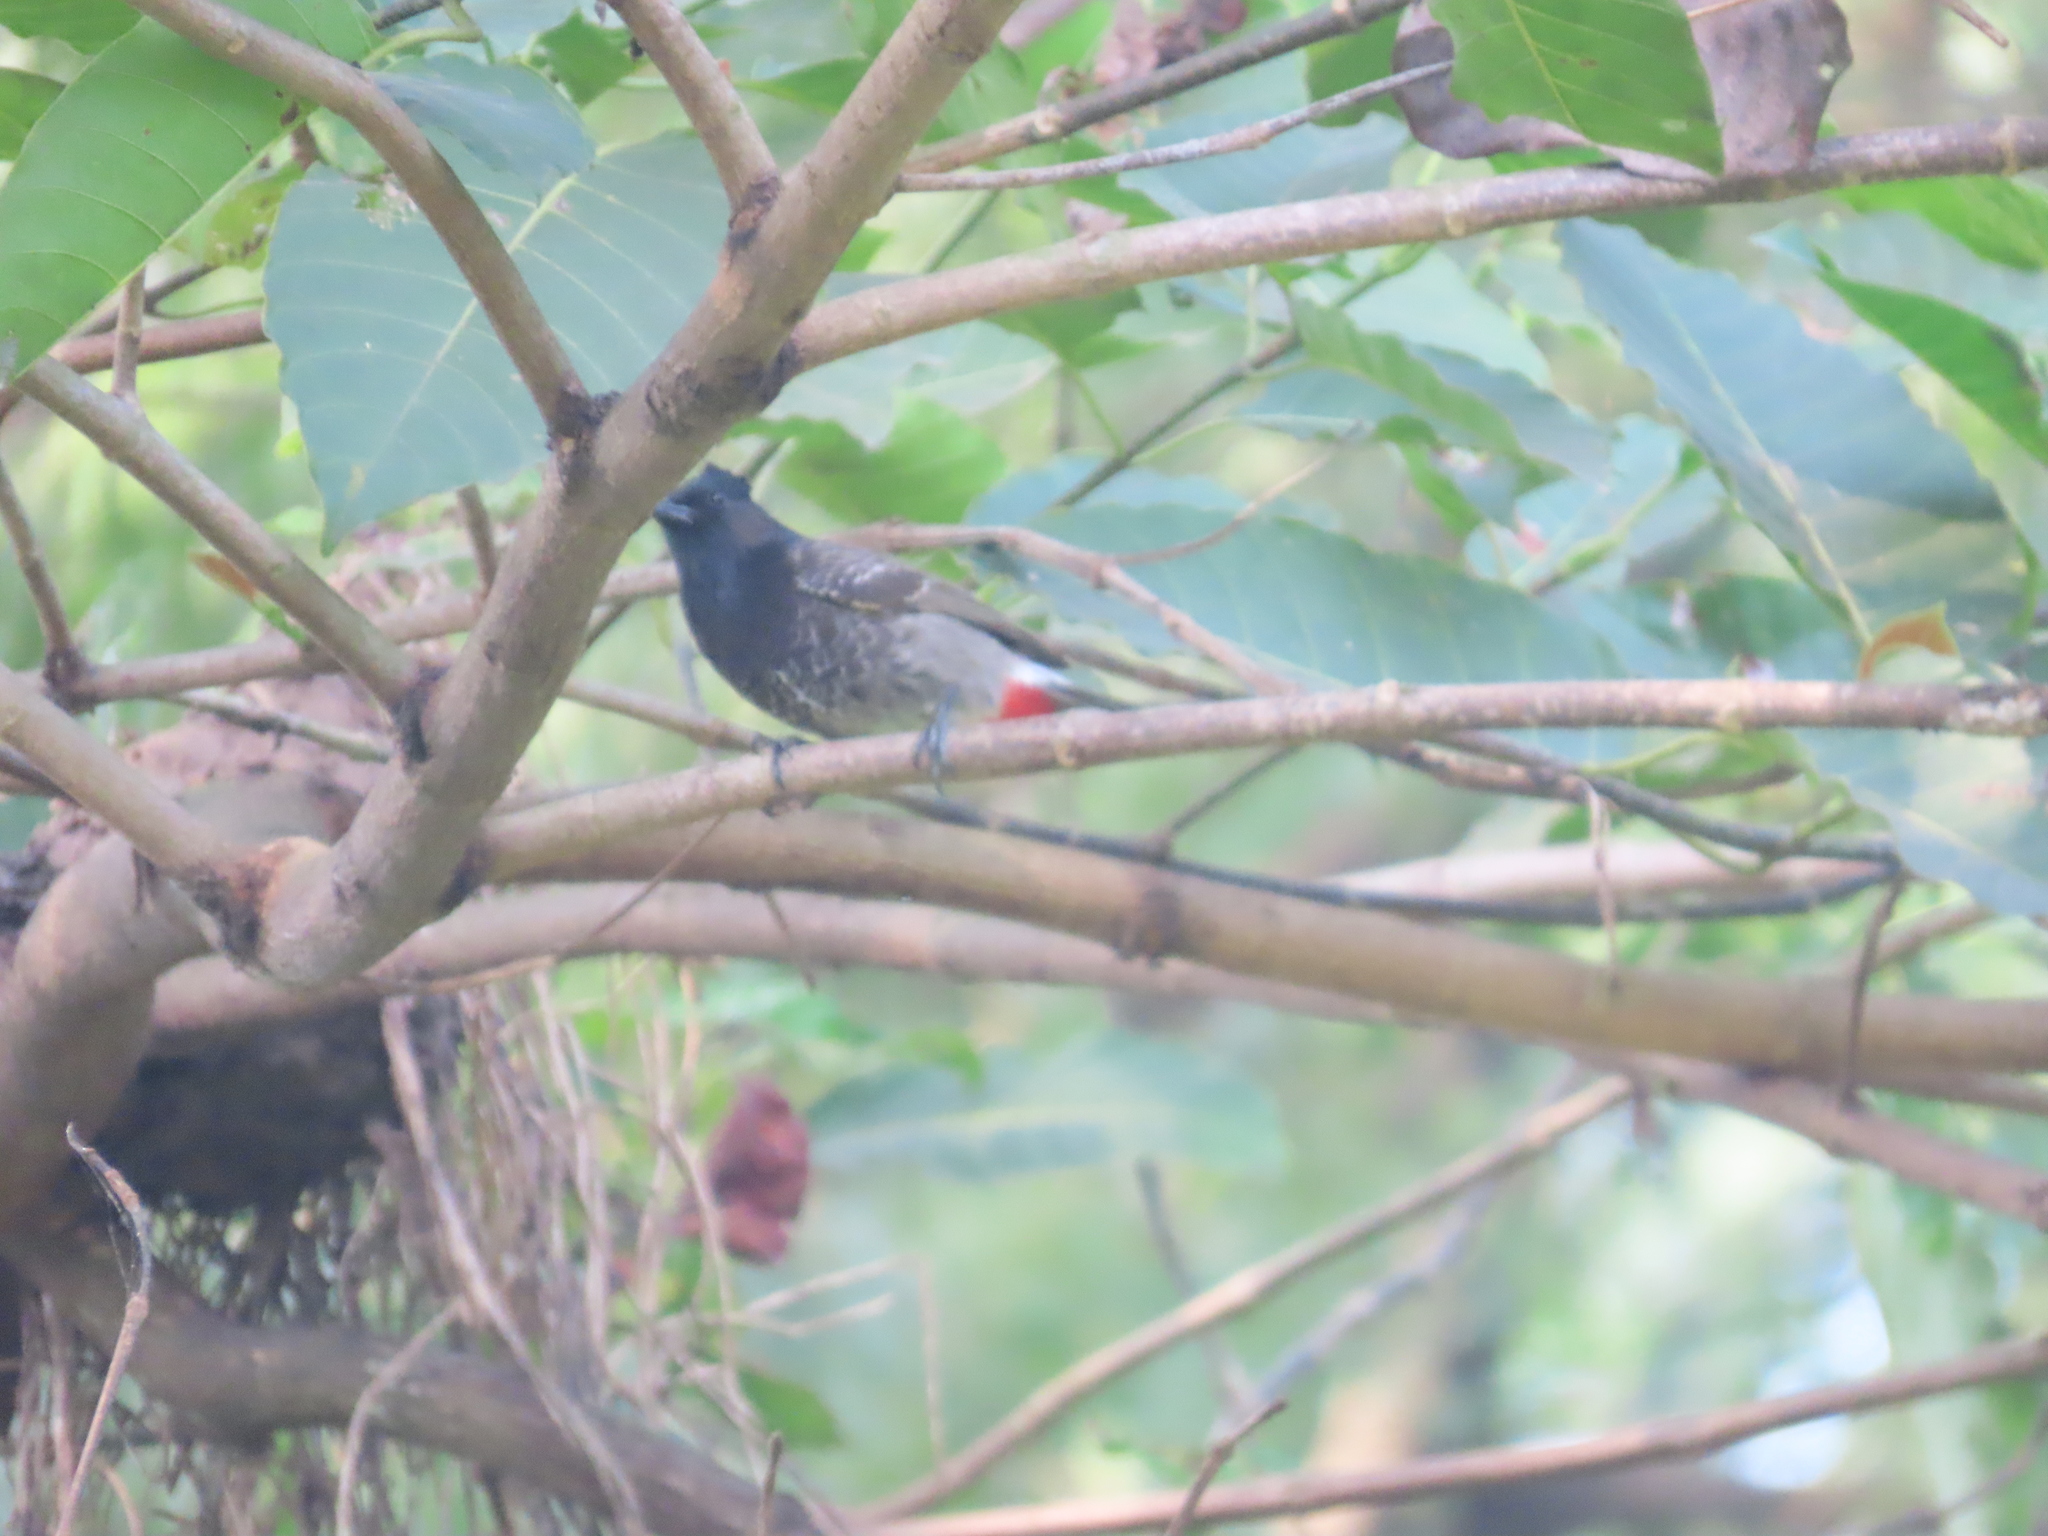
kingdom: Animalia
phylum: Chordata
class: Aves
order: Passeriformes
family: Pycnonotidae
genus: Pycnonotus
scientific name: Pycnonotus cafer
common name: Red-vented bulbul
